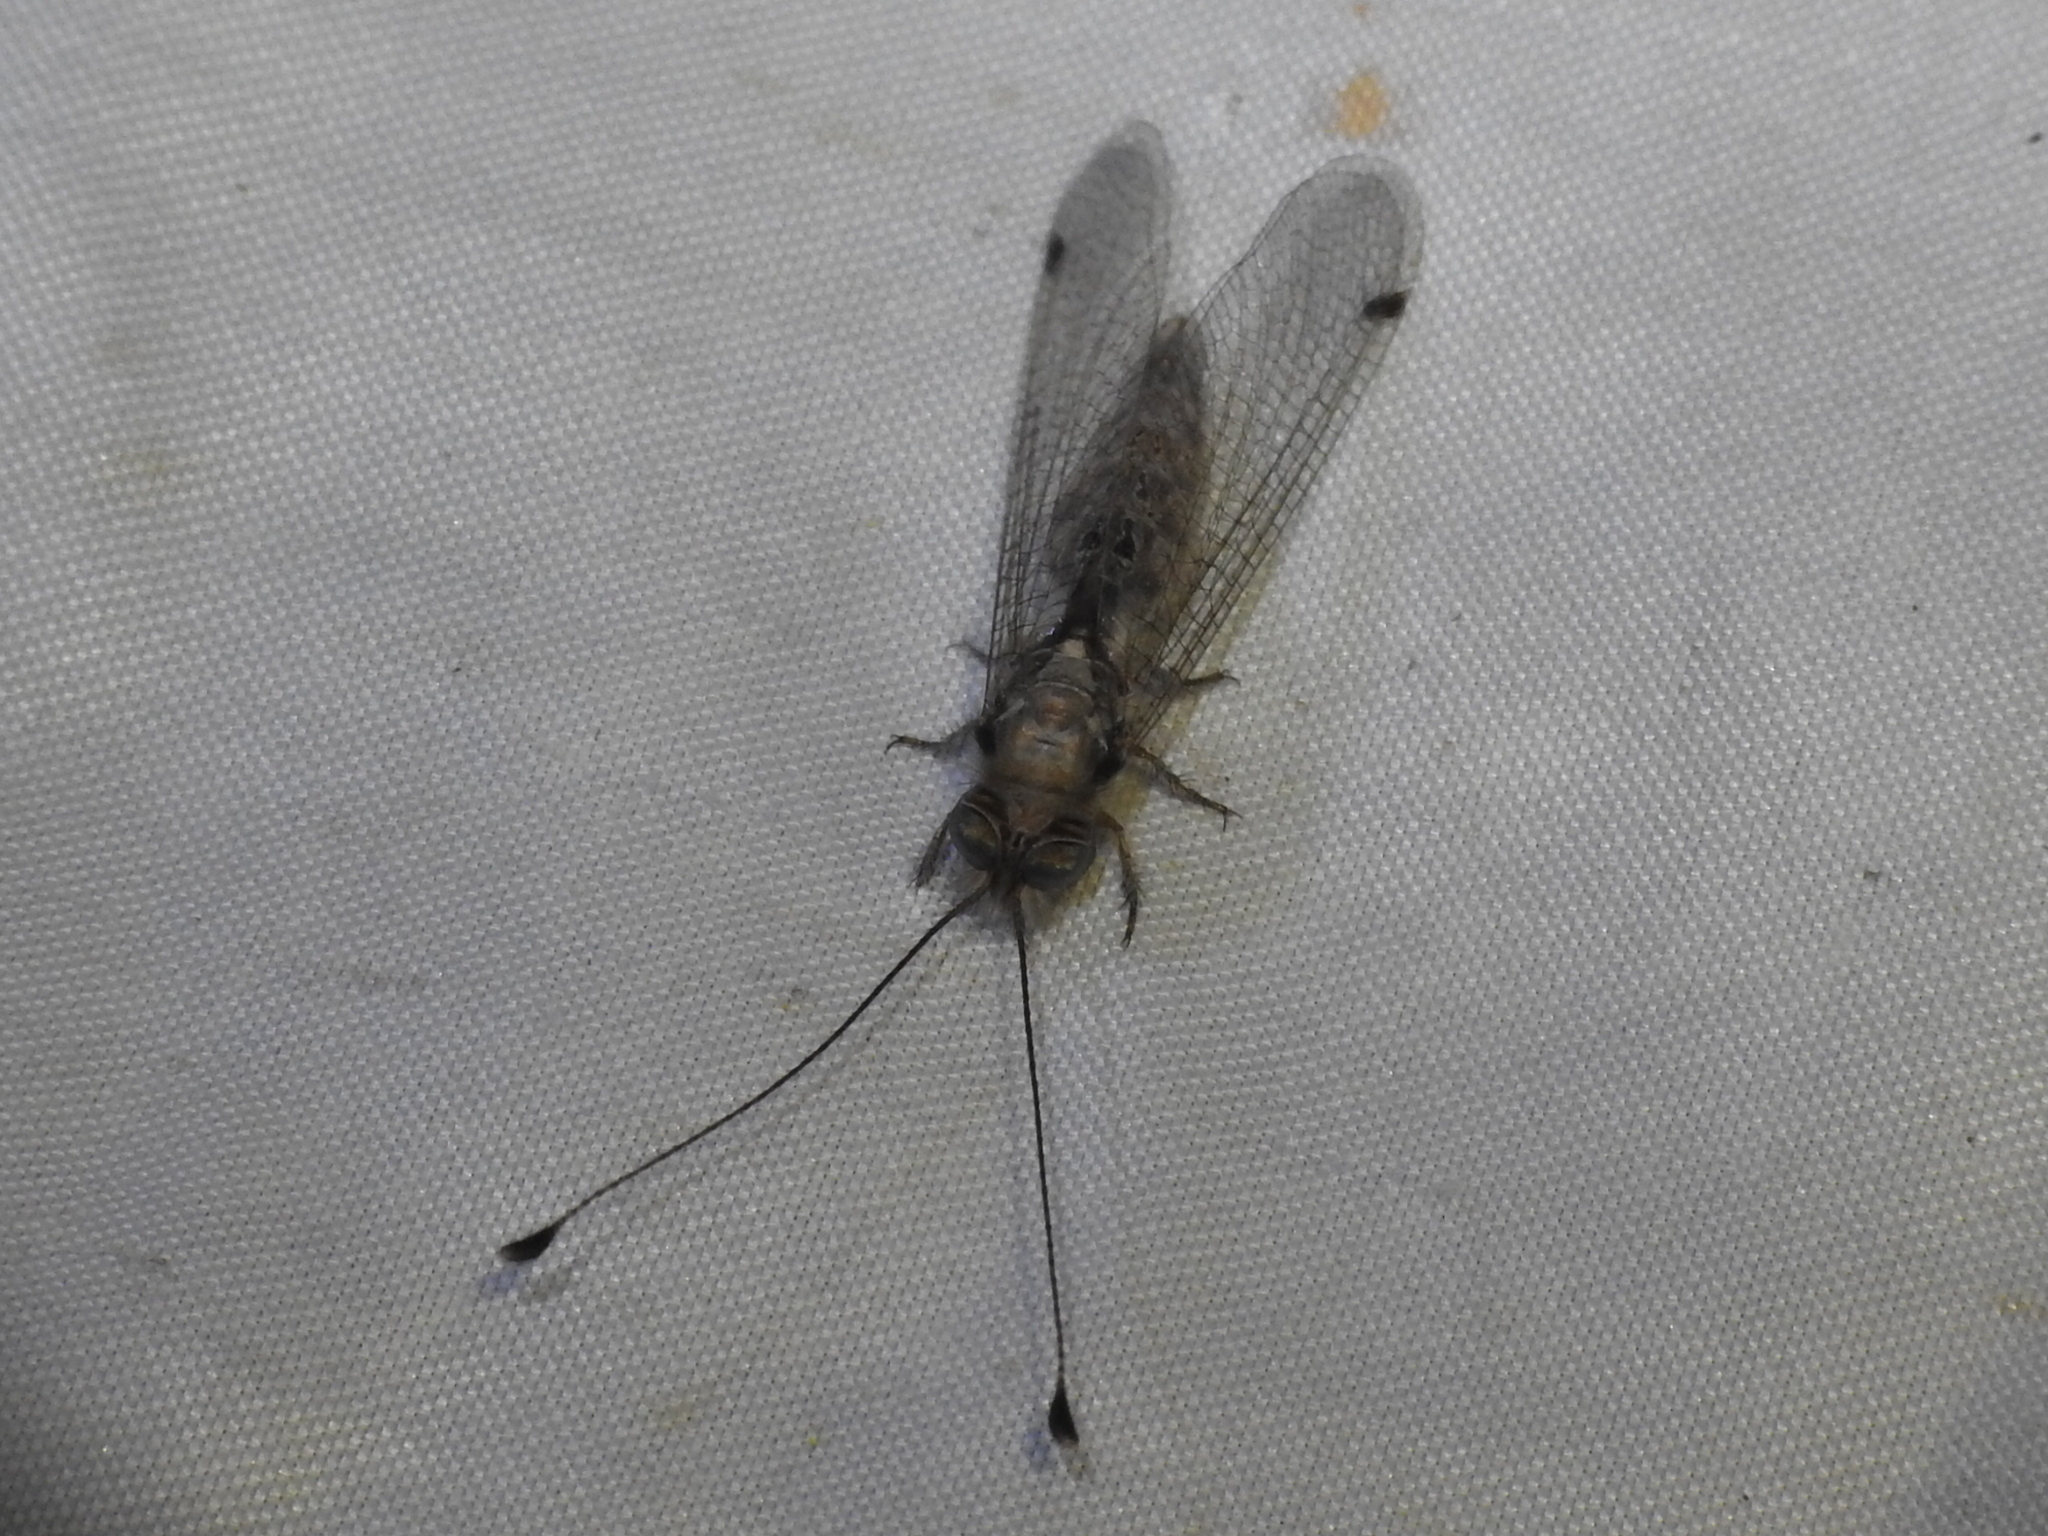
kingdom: Animalia
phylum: Arthropoda
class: Insecta
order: Neuroptera
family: Ascalaphidae
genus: Ululodes
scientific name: Ululodes macleayanus
